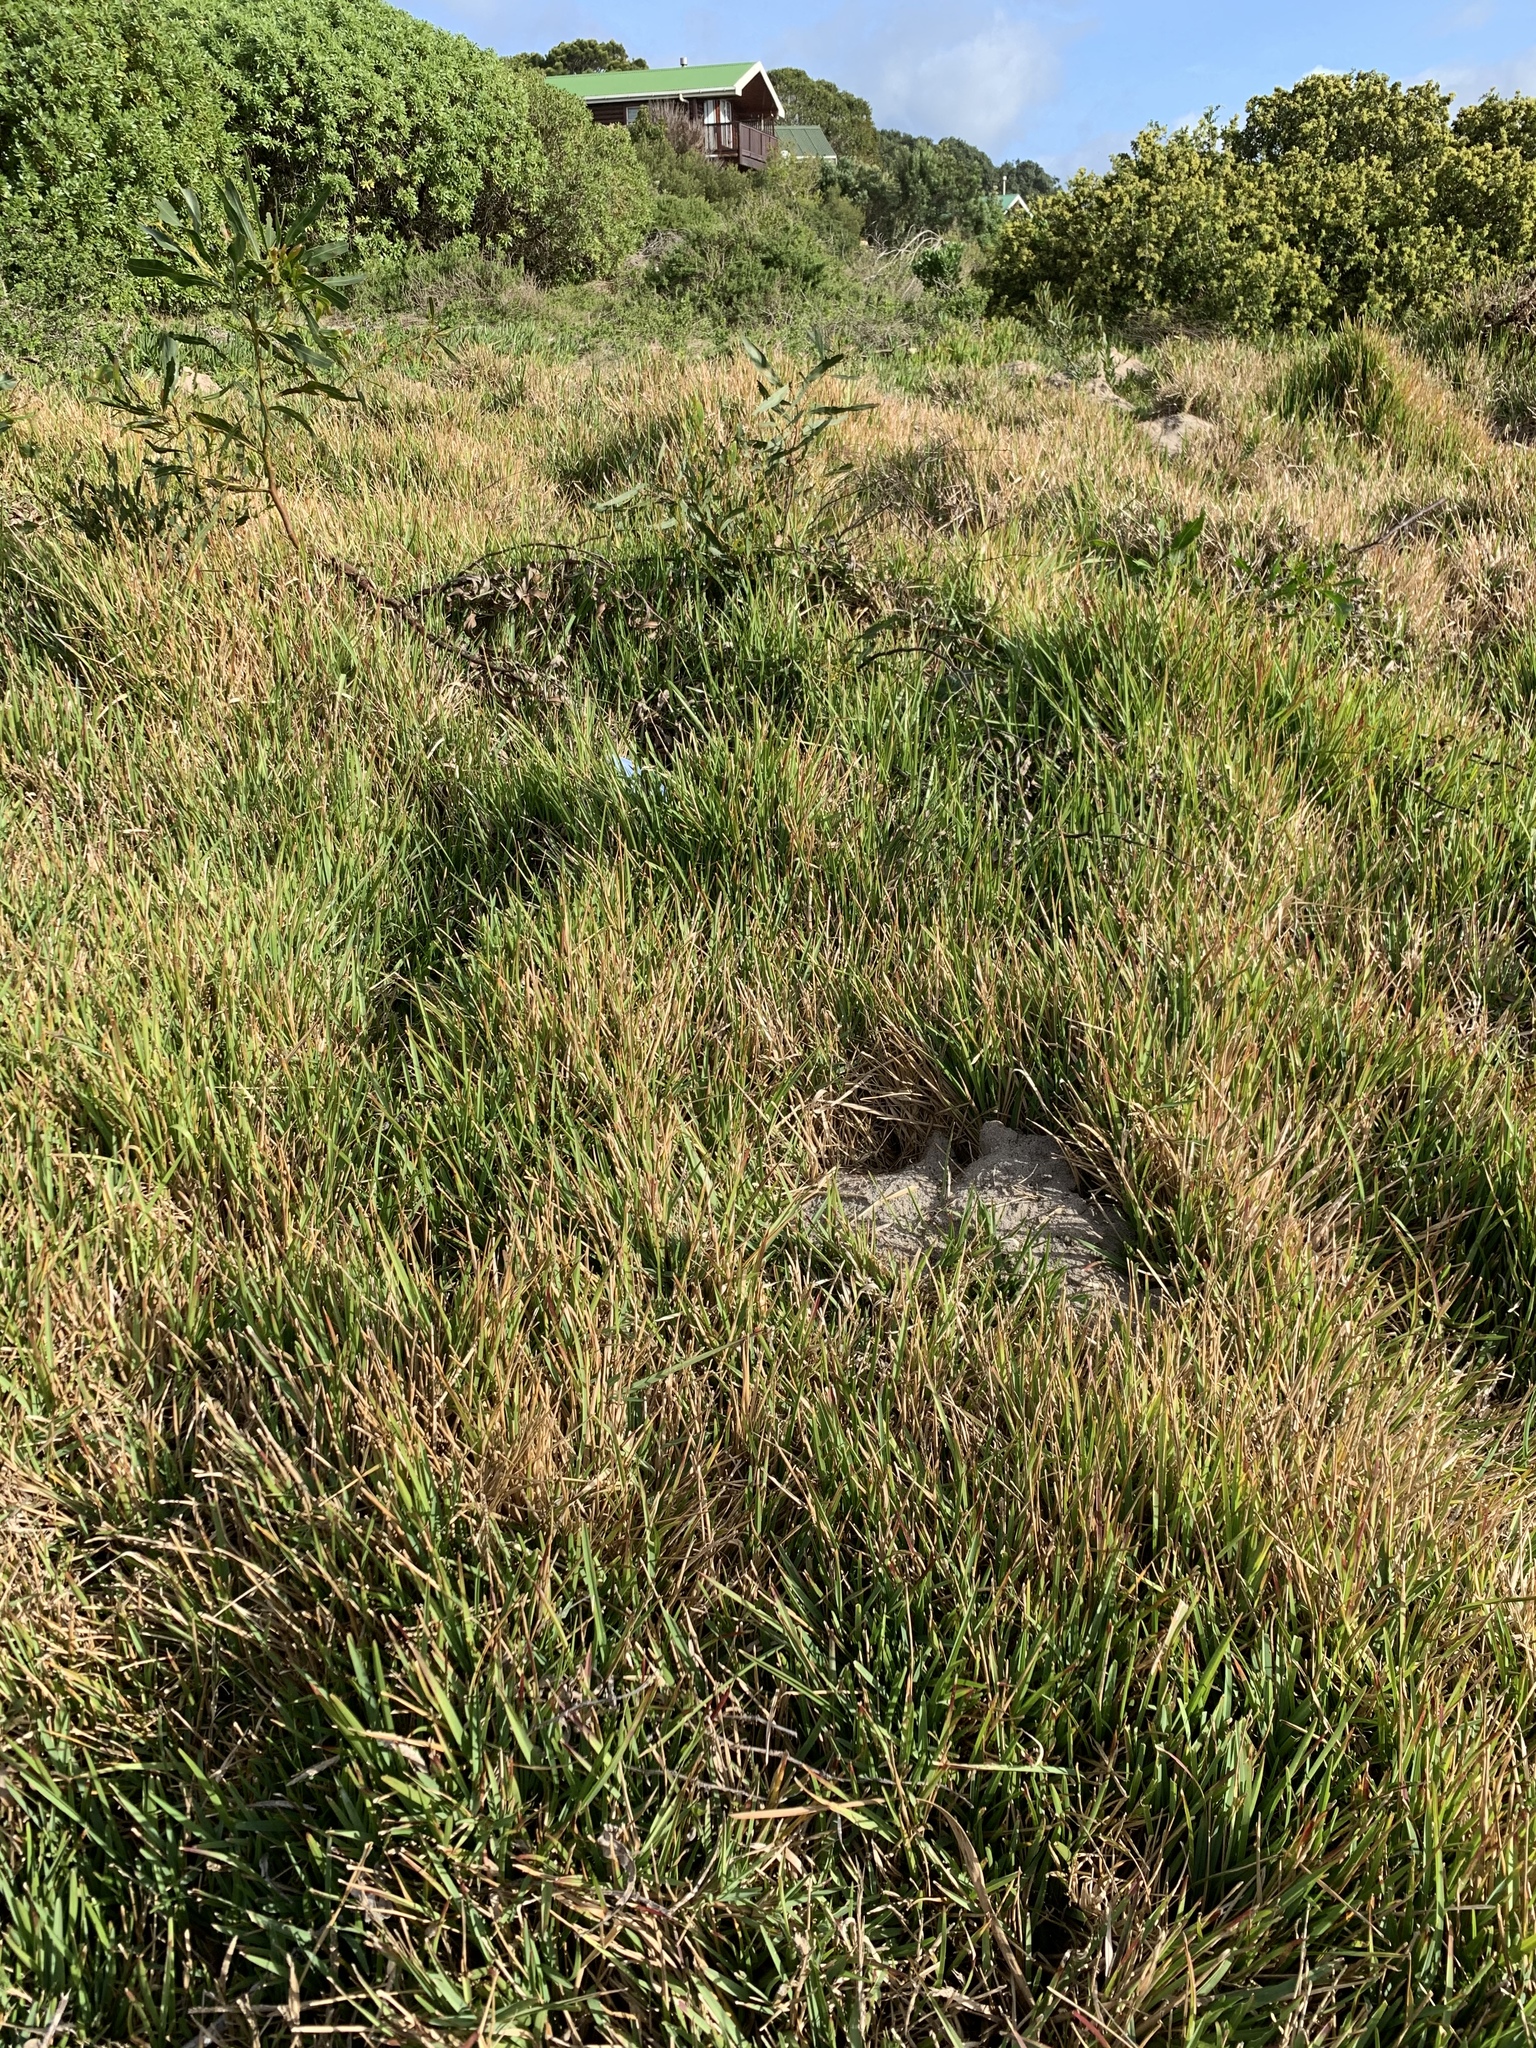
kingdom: Plantae
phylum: Tracheophyta
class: Liliopsida
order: Poales
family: Poaceae
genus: Stenotaphrum
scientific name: Stenotaphrum secundatum
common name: St. augustine grass
